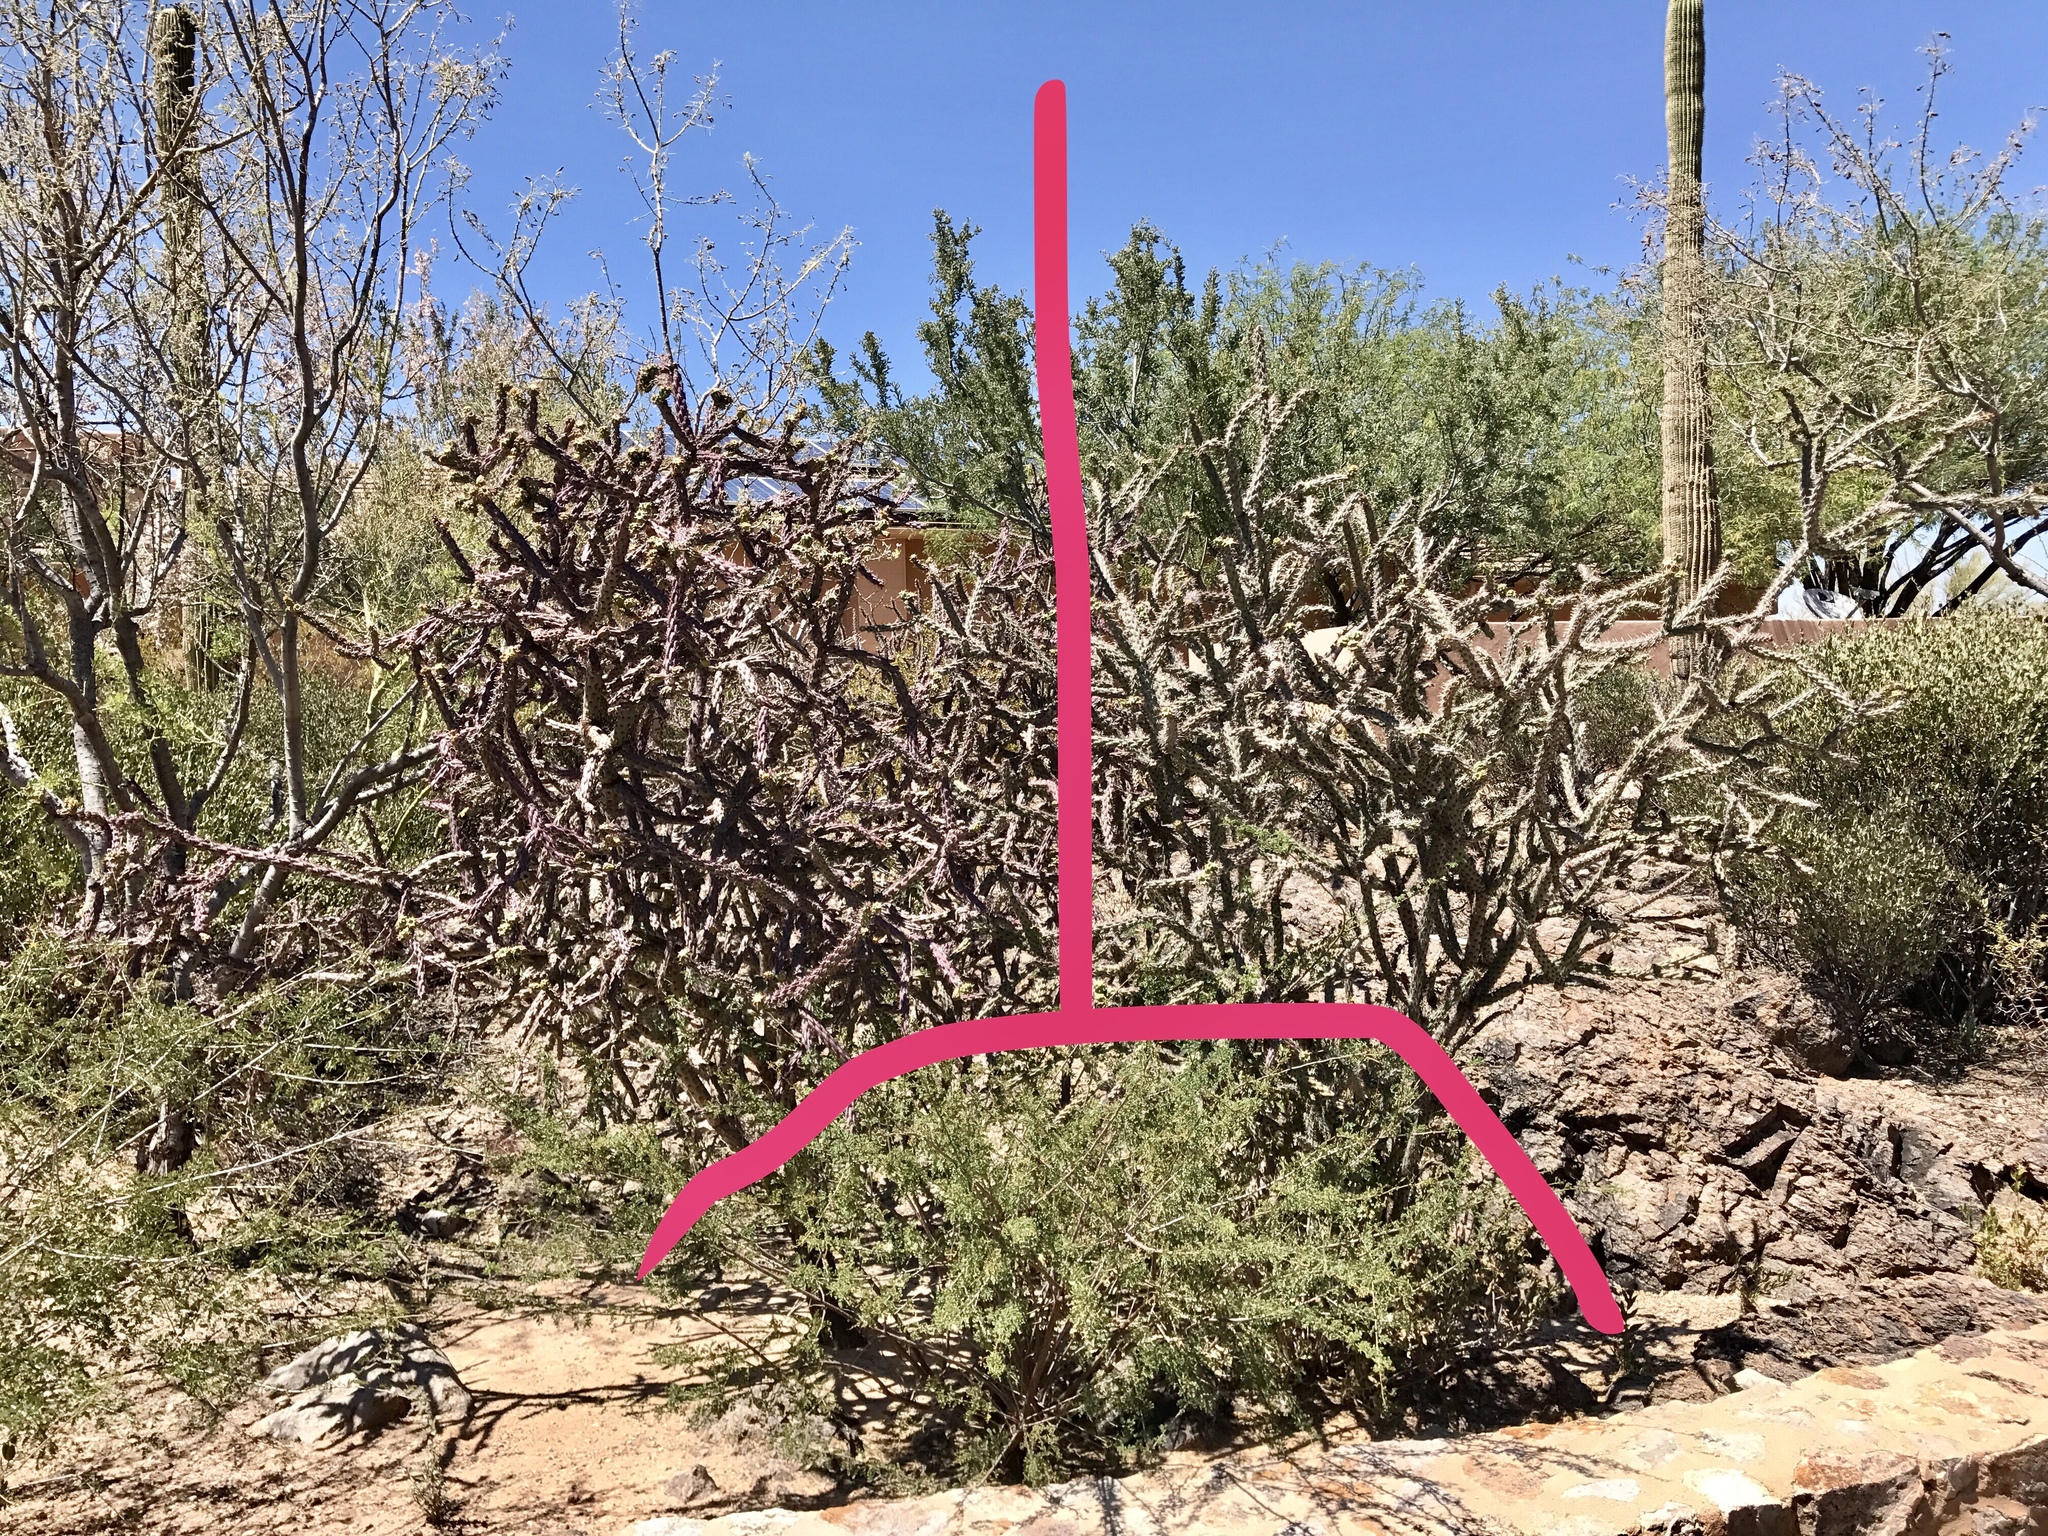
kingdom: Plantae
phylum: Tracheophyta
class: Magnoliopsida
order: Caryophyllales
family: Cactaceae
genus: Cylindropuntia
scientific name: Cylindropuntia thurberi
